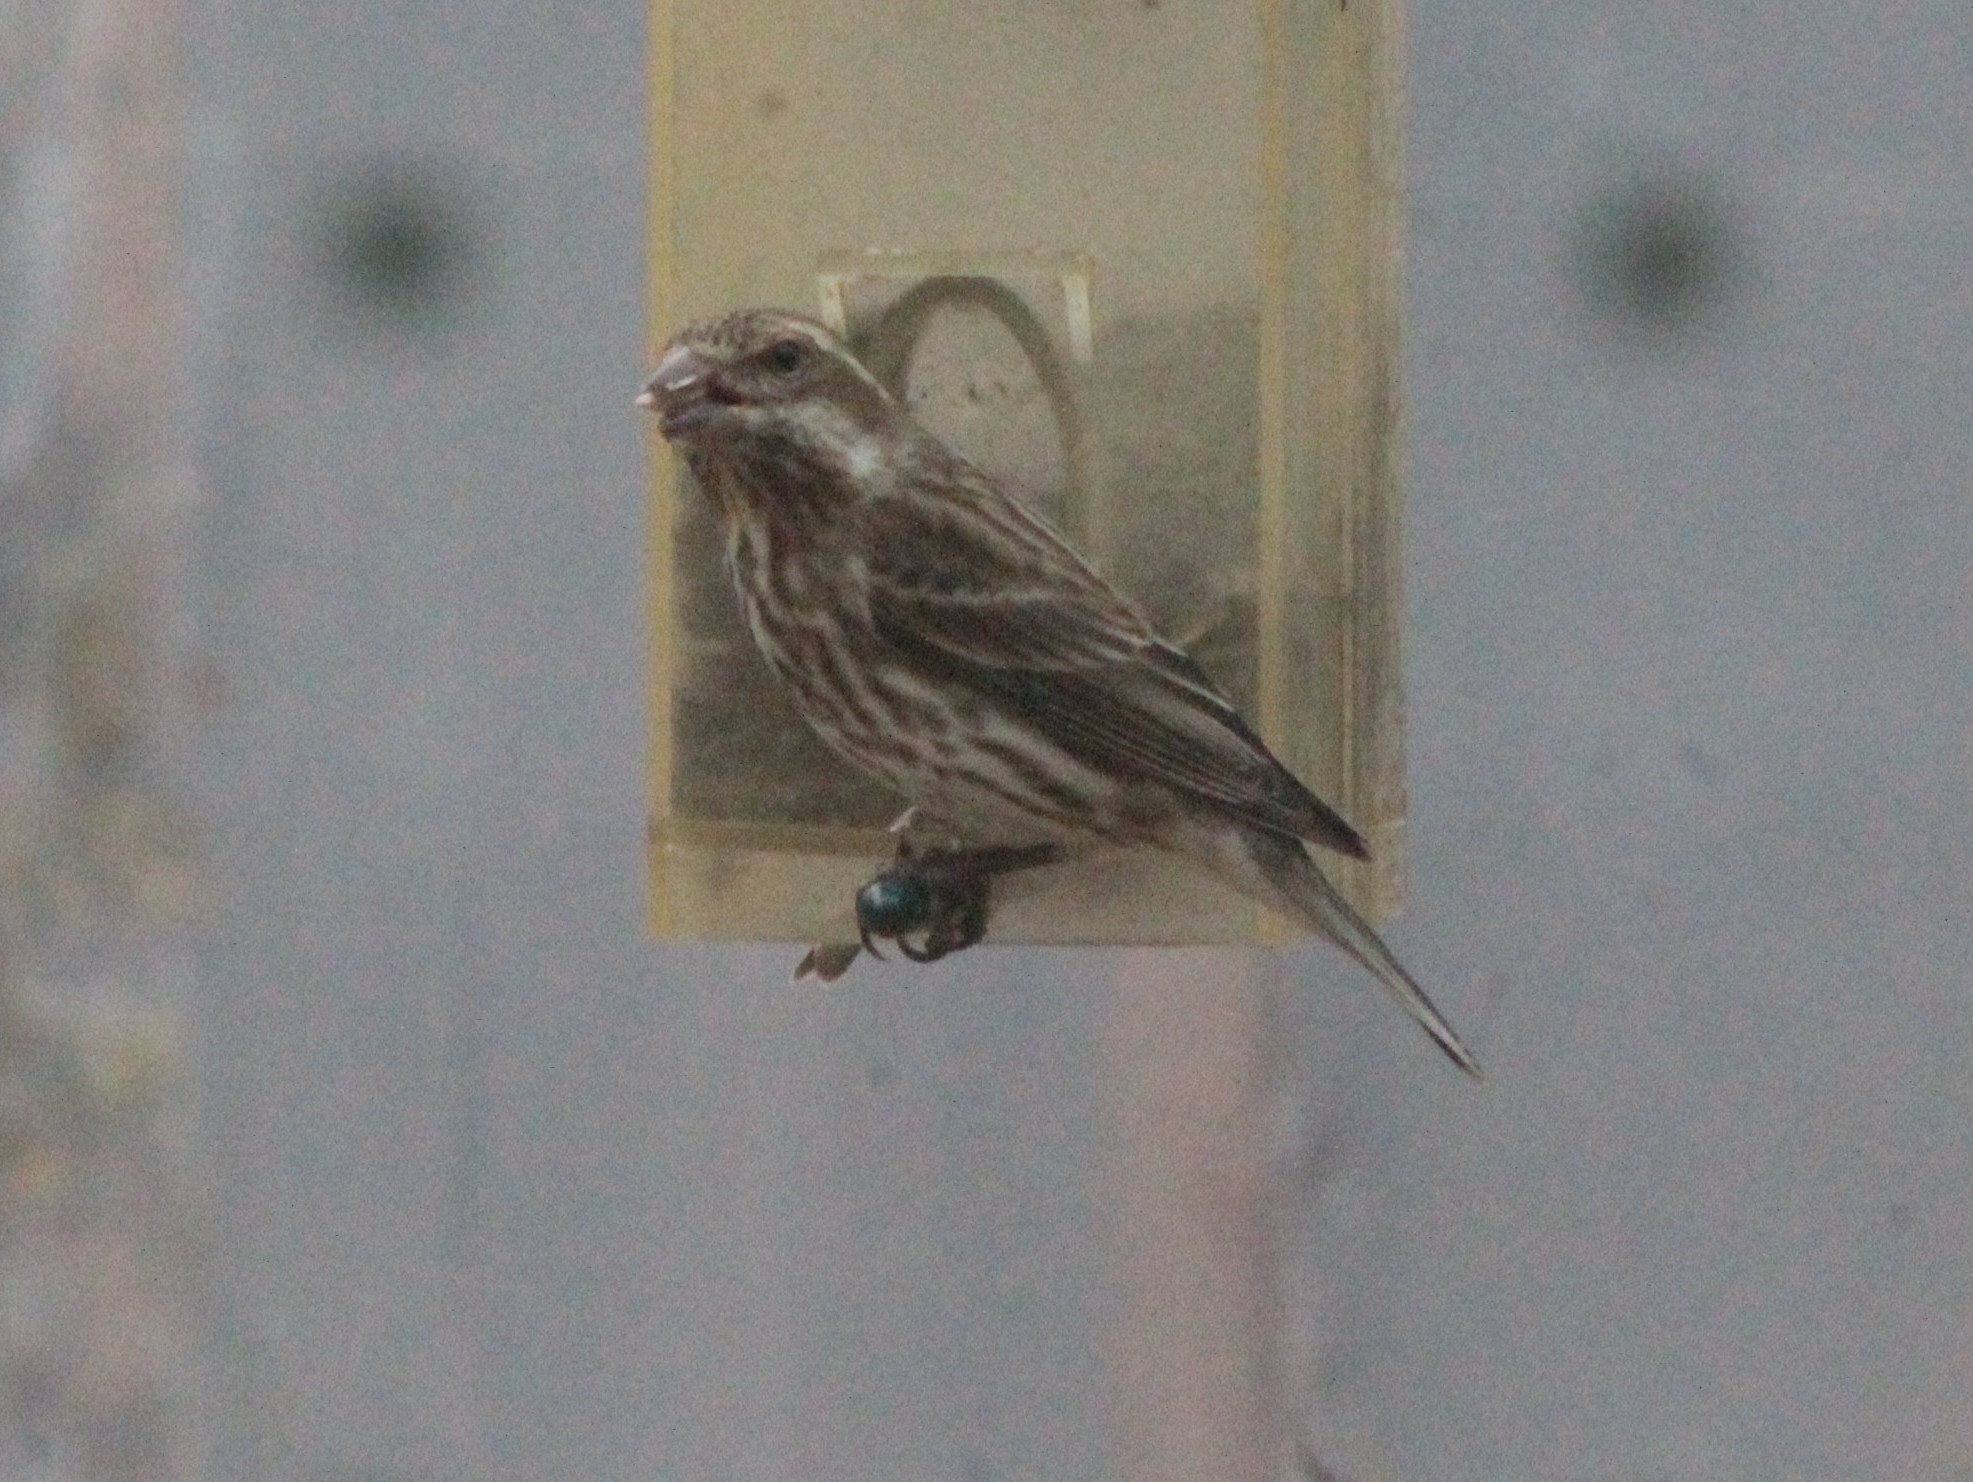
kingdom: Animalia
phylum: Chordata
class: Aves
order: Passeriformes
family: Fringillidae
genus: Haemorhous
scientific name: Haemorhous purpureus
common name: Purple finch
